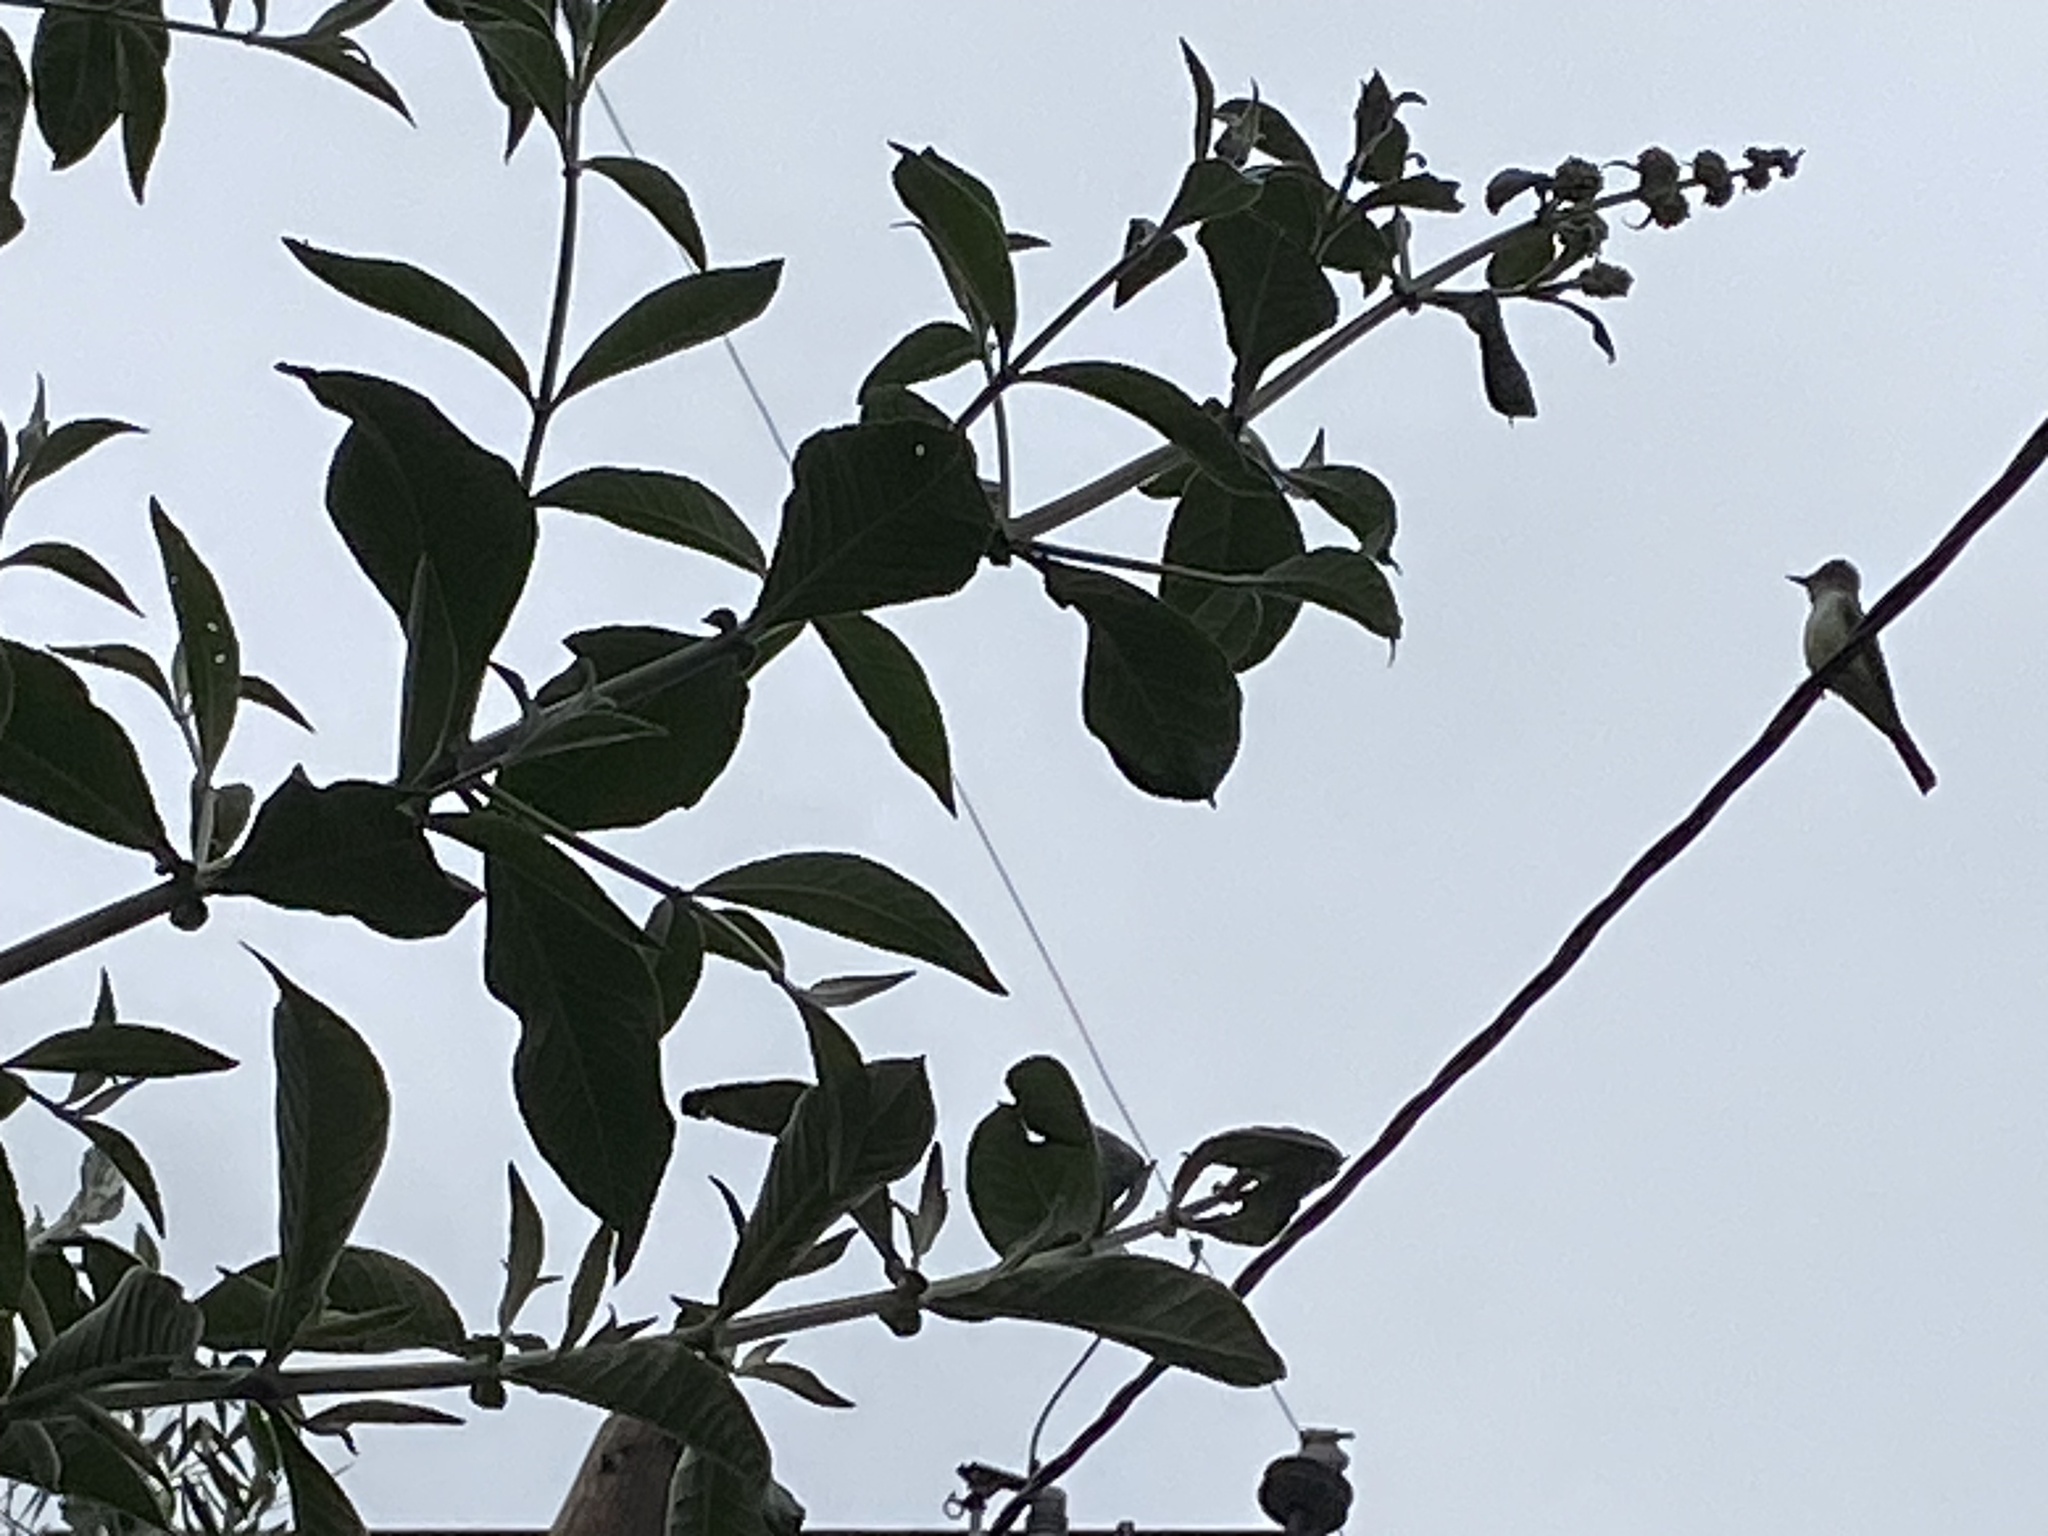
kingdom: Animalia
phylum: Chordata
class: Aves
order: Passeriformes
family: Tyrannidae
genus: Myiarchus
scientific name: Myiarchus cinerascens
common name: Ash-throated flycatcher
